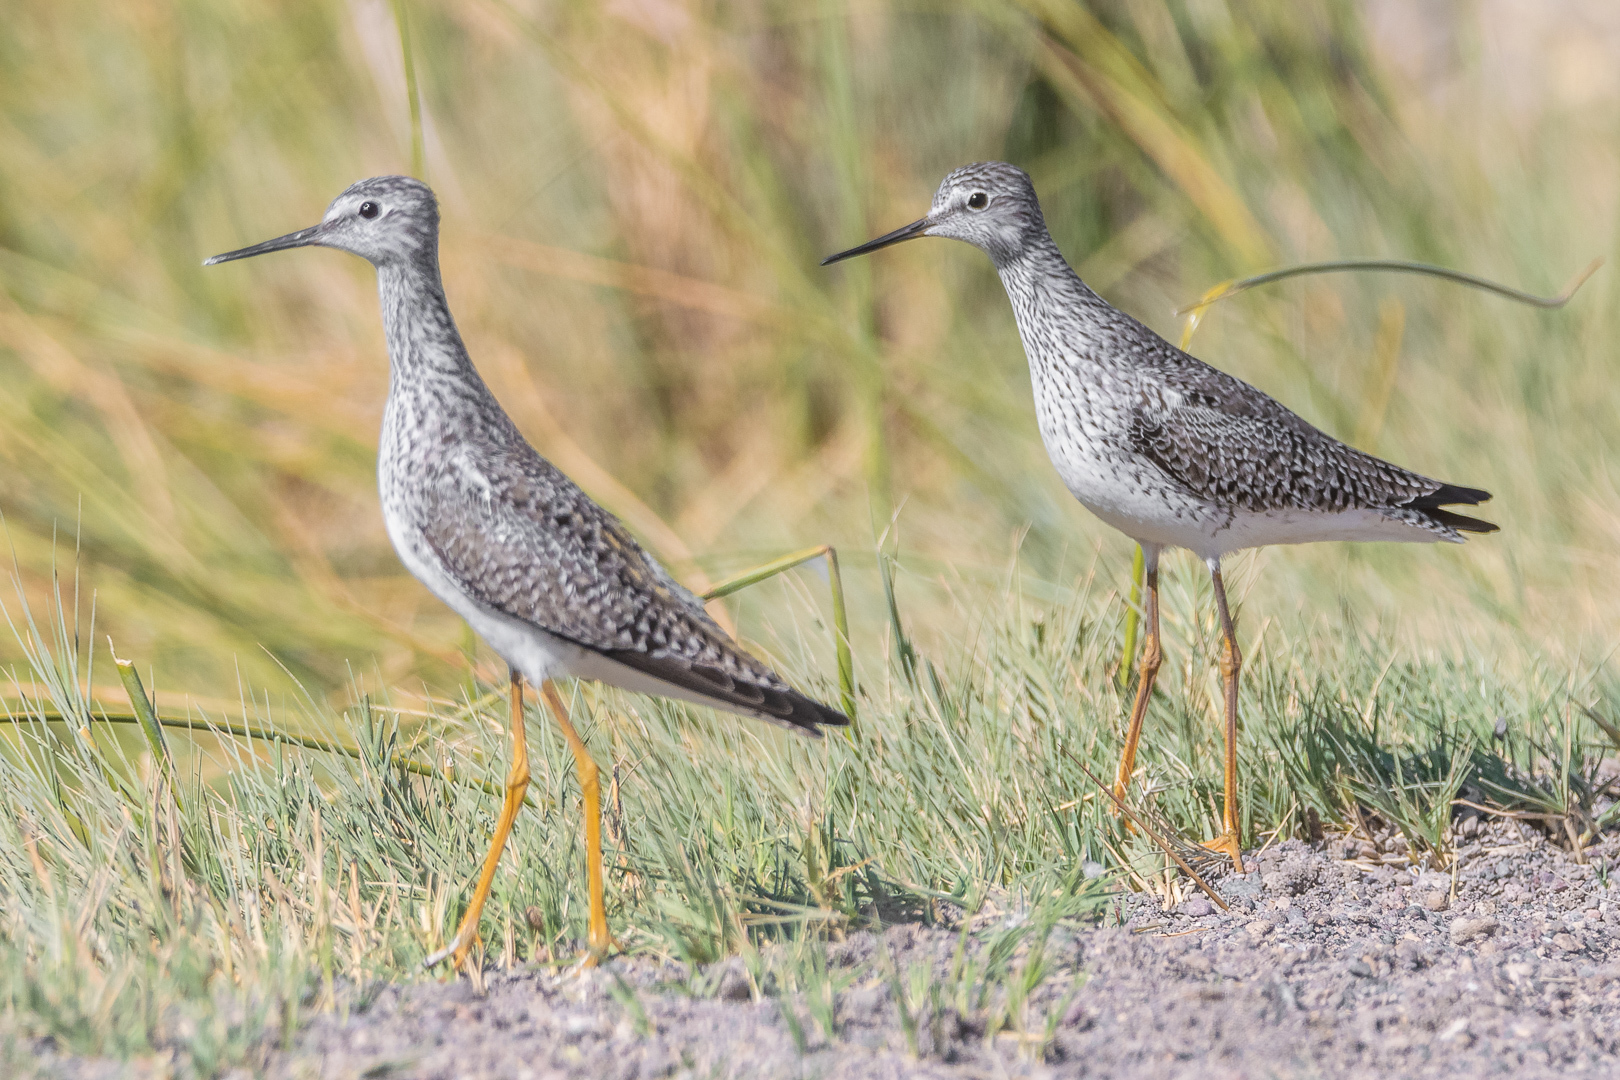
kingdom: Animalia
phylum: Chordata
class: Aves
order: Charadriiformes
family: Scolopacidae
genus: Tringa
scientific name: Tringa flavipes
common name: Lesser yellowlegs
